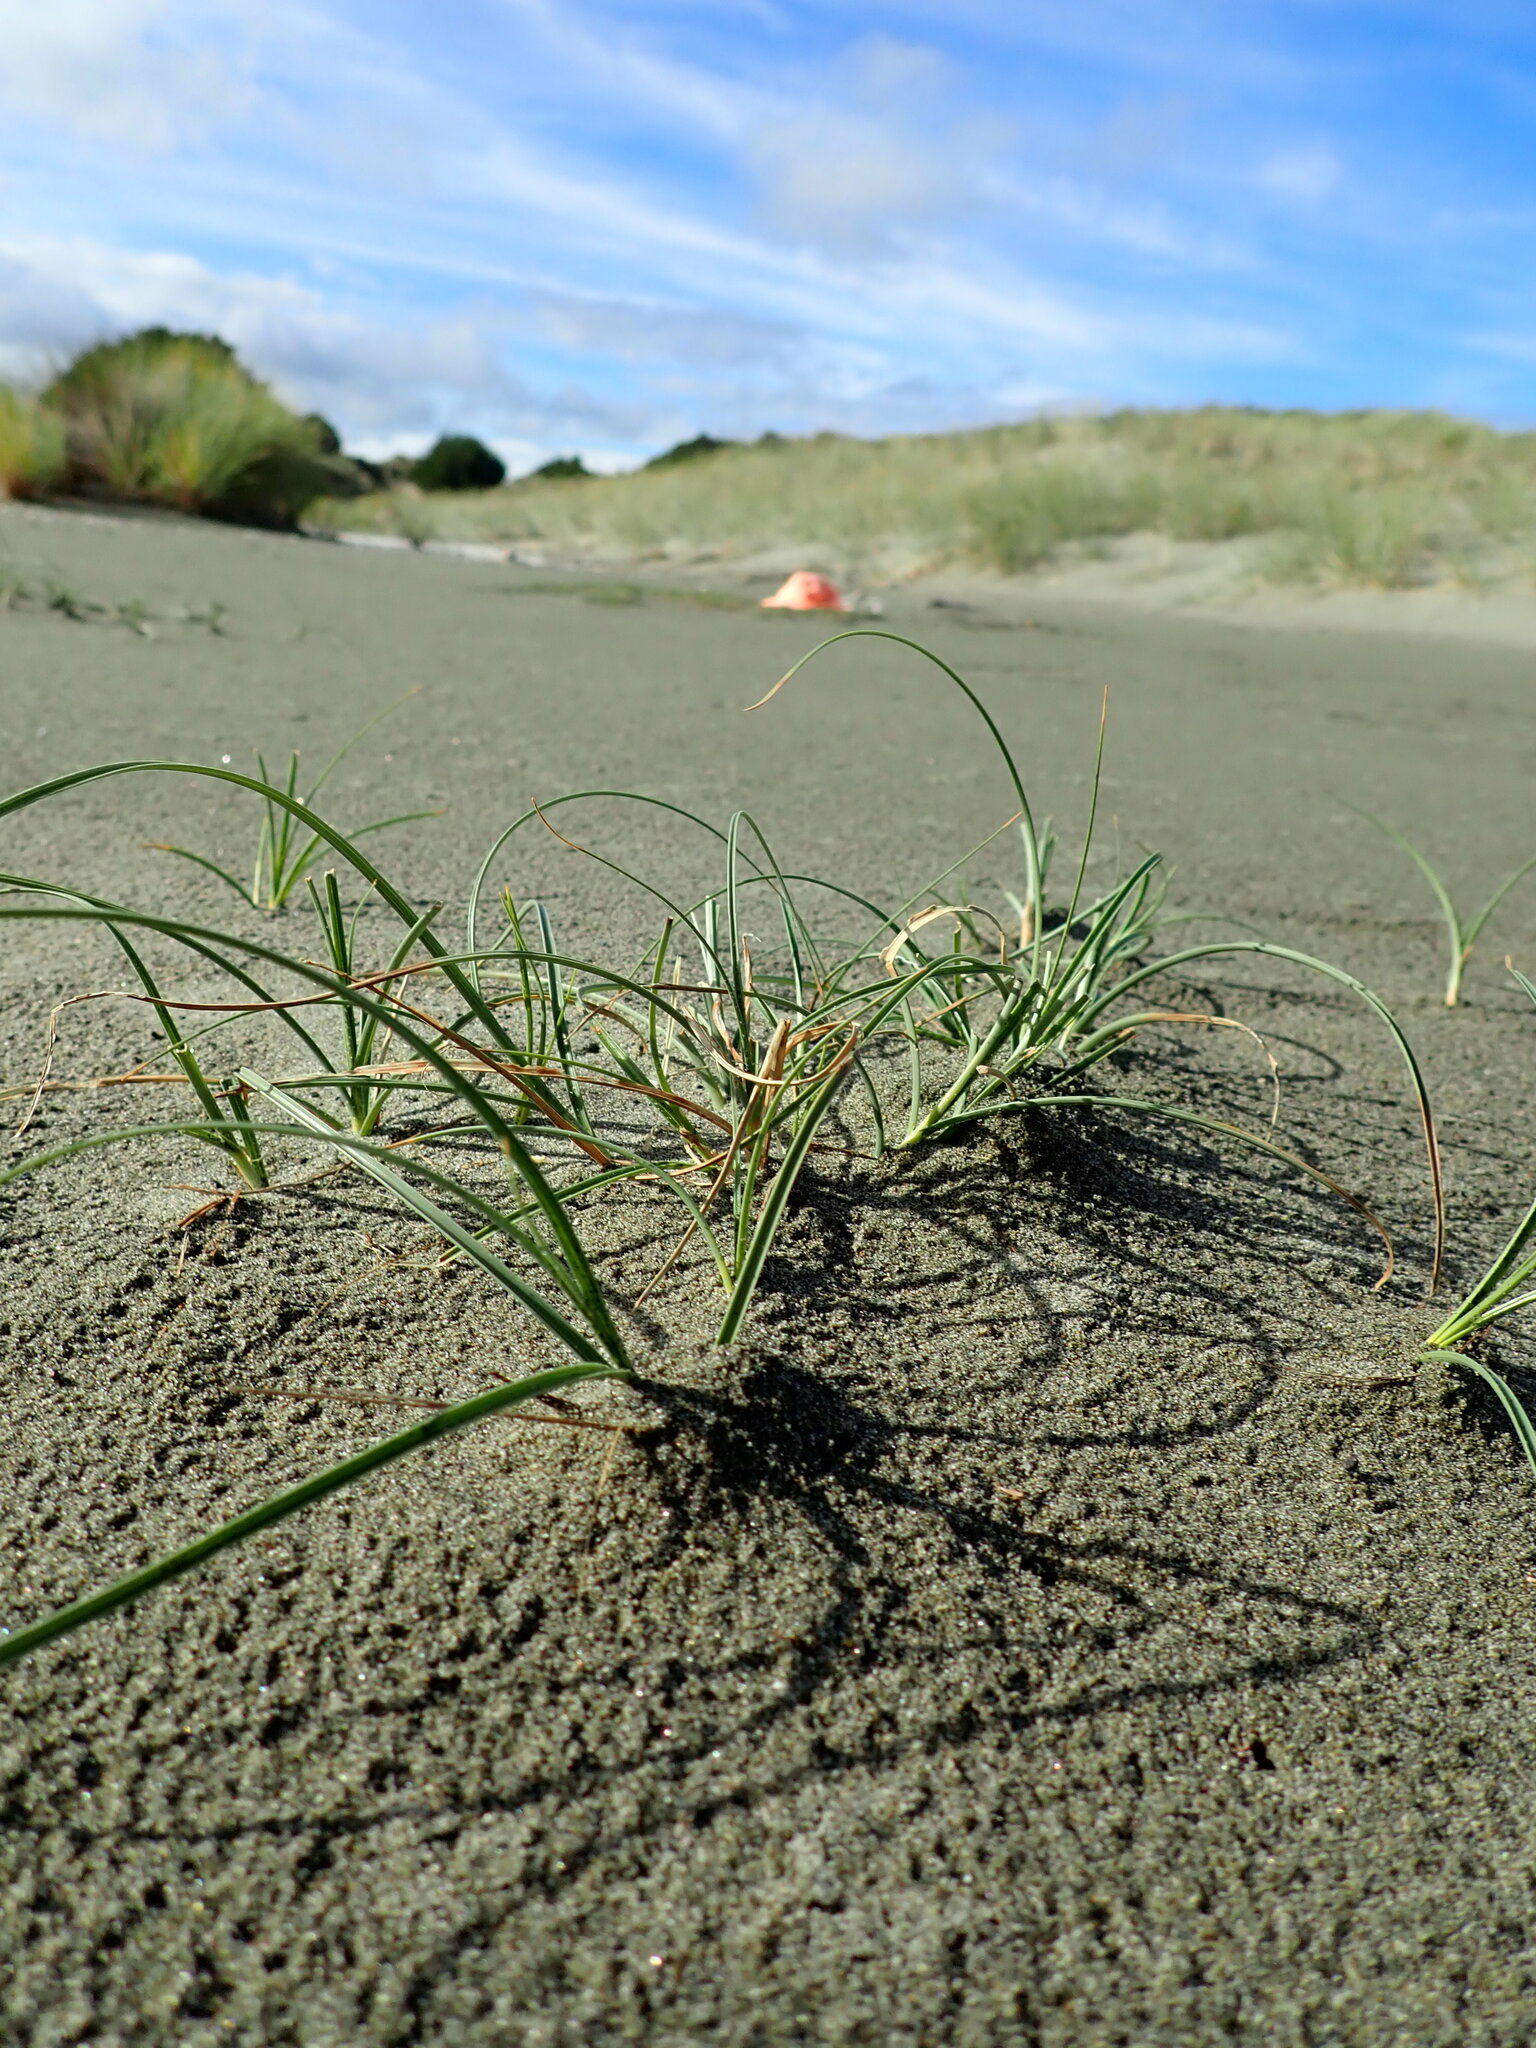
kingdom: Plantae
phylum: Tracheophyta
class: Liliopsida
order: Poales
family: Cyperaceae
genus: Carex
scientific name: Carex pumila
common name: Dwarf sedge
